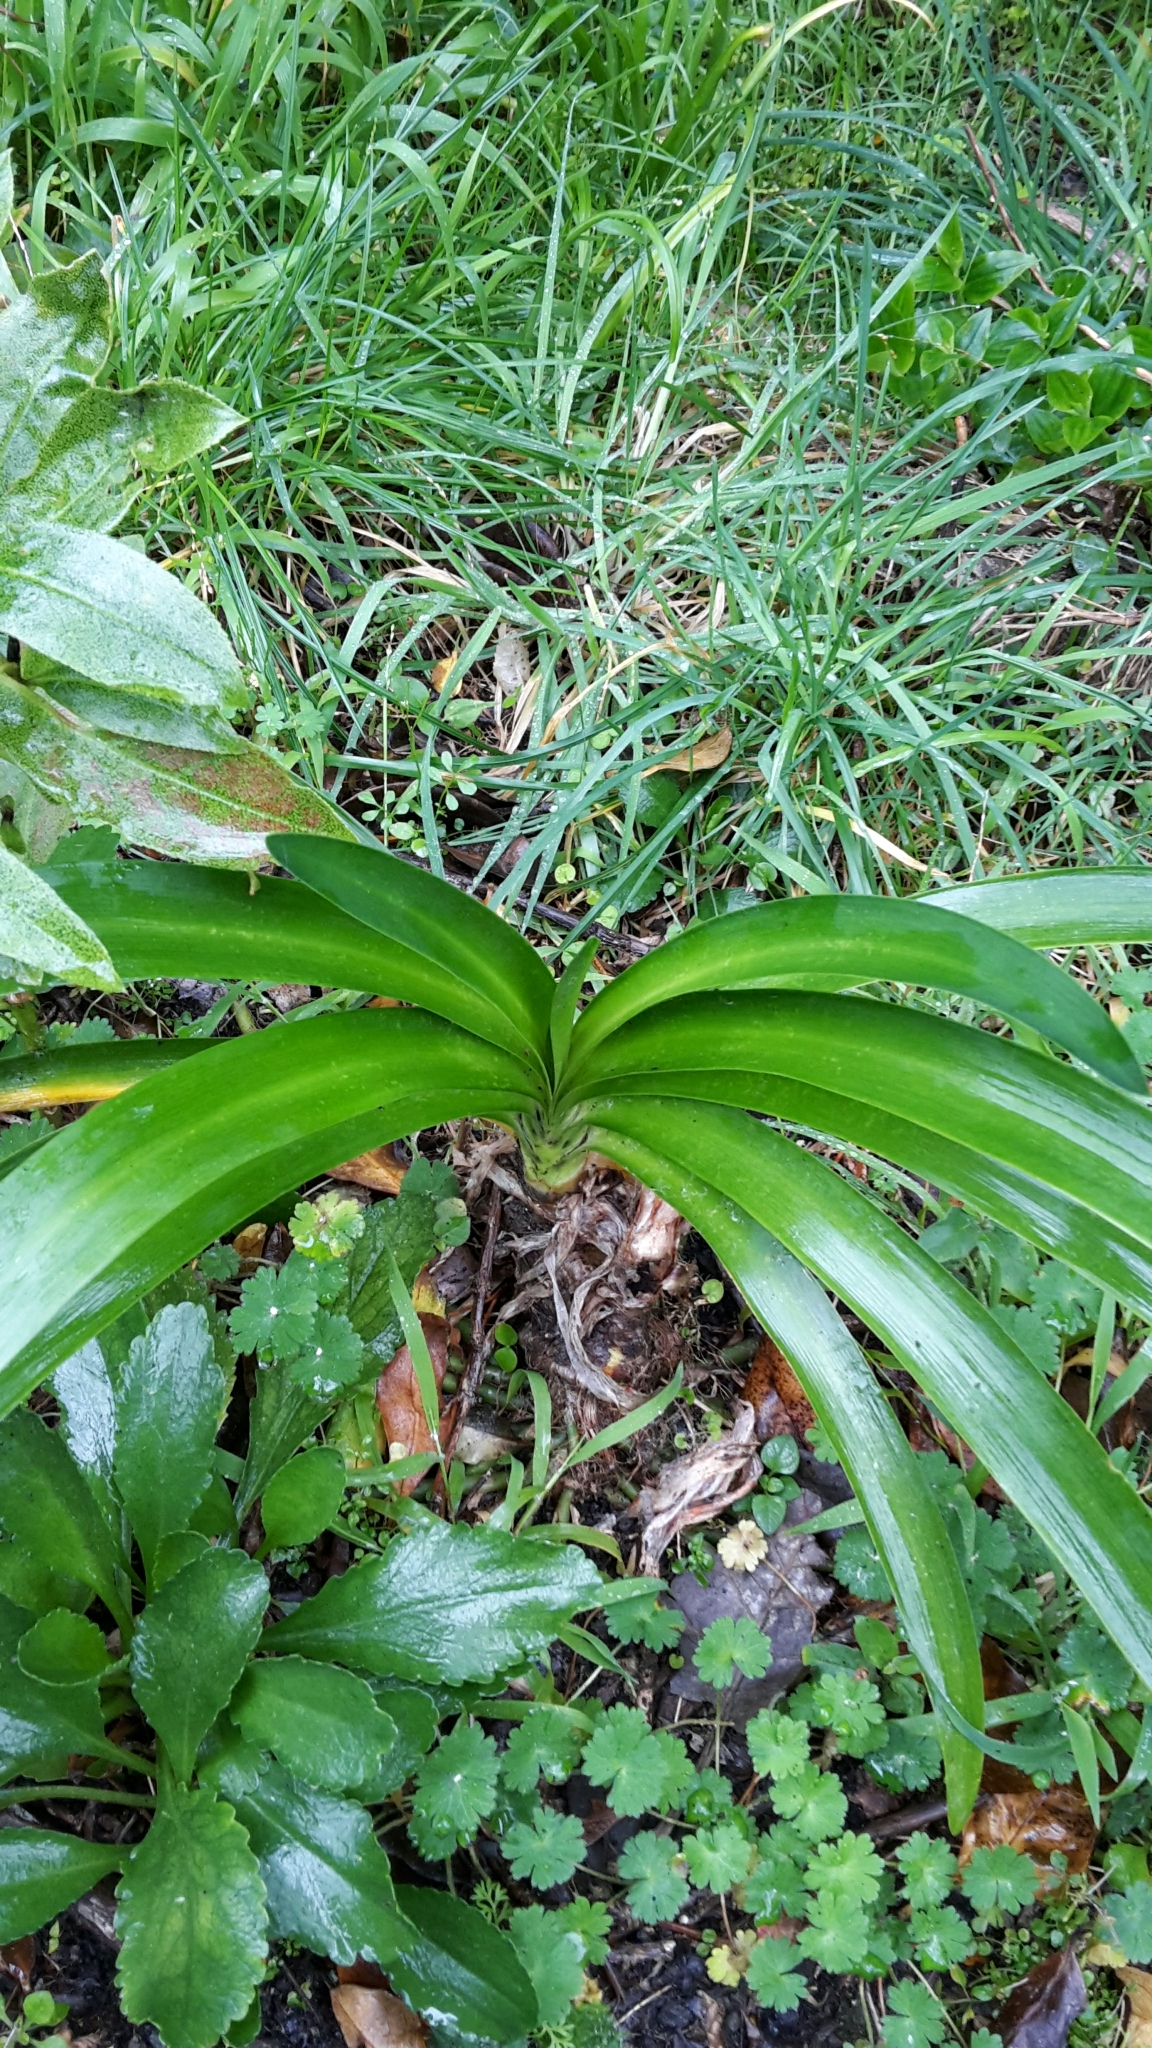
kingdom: Plantae
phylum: Tracheophyta
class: Liliopsida
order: Asparagales
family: Amaryllidaceae
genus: Agapanthus
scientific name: Agapanthus praecox
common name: African-lily
